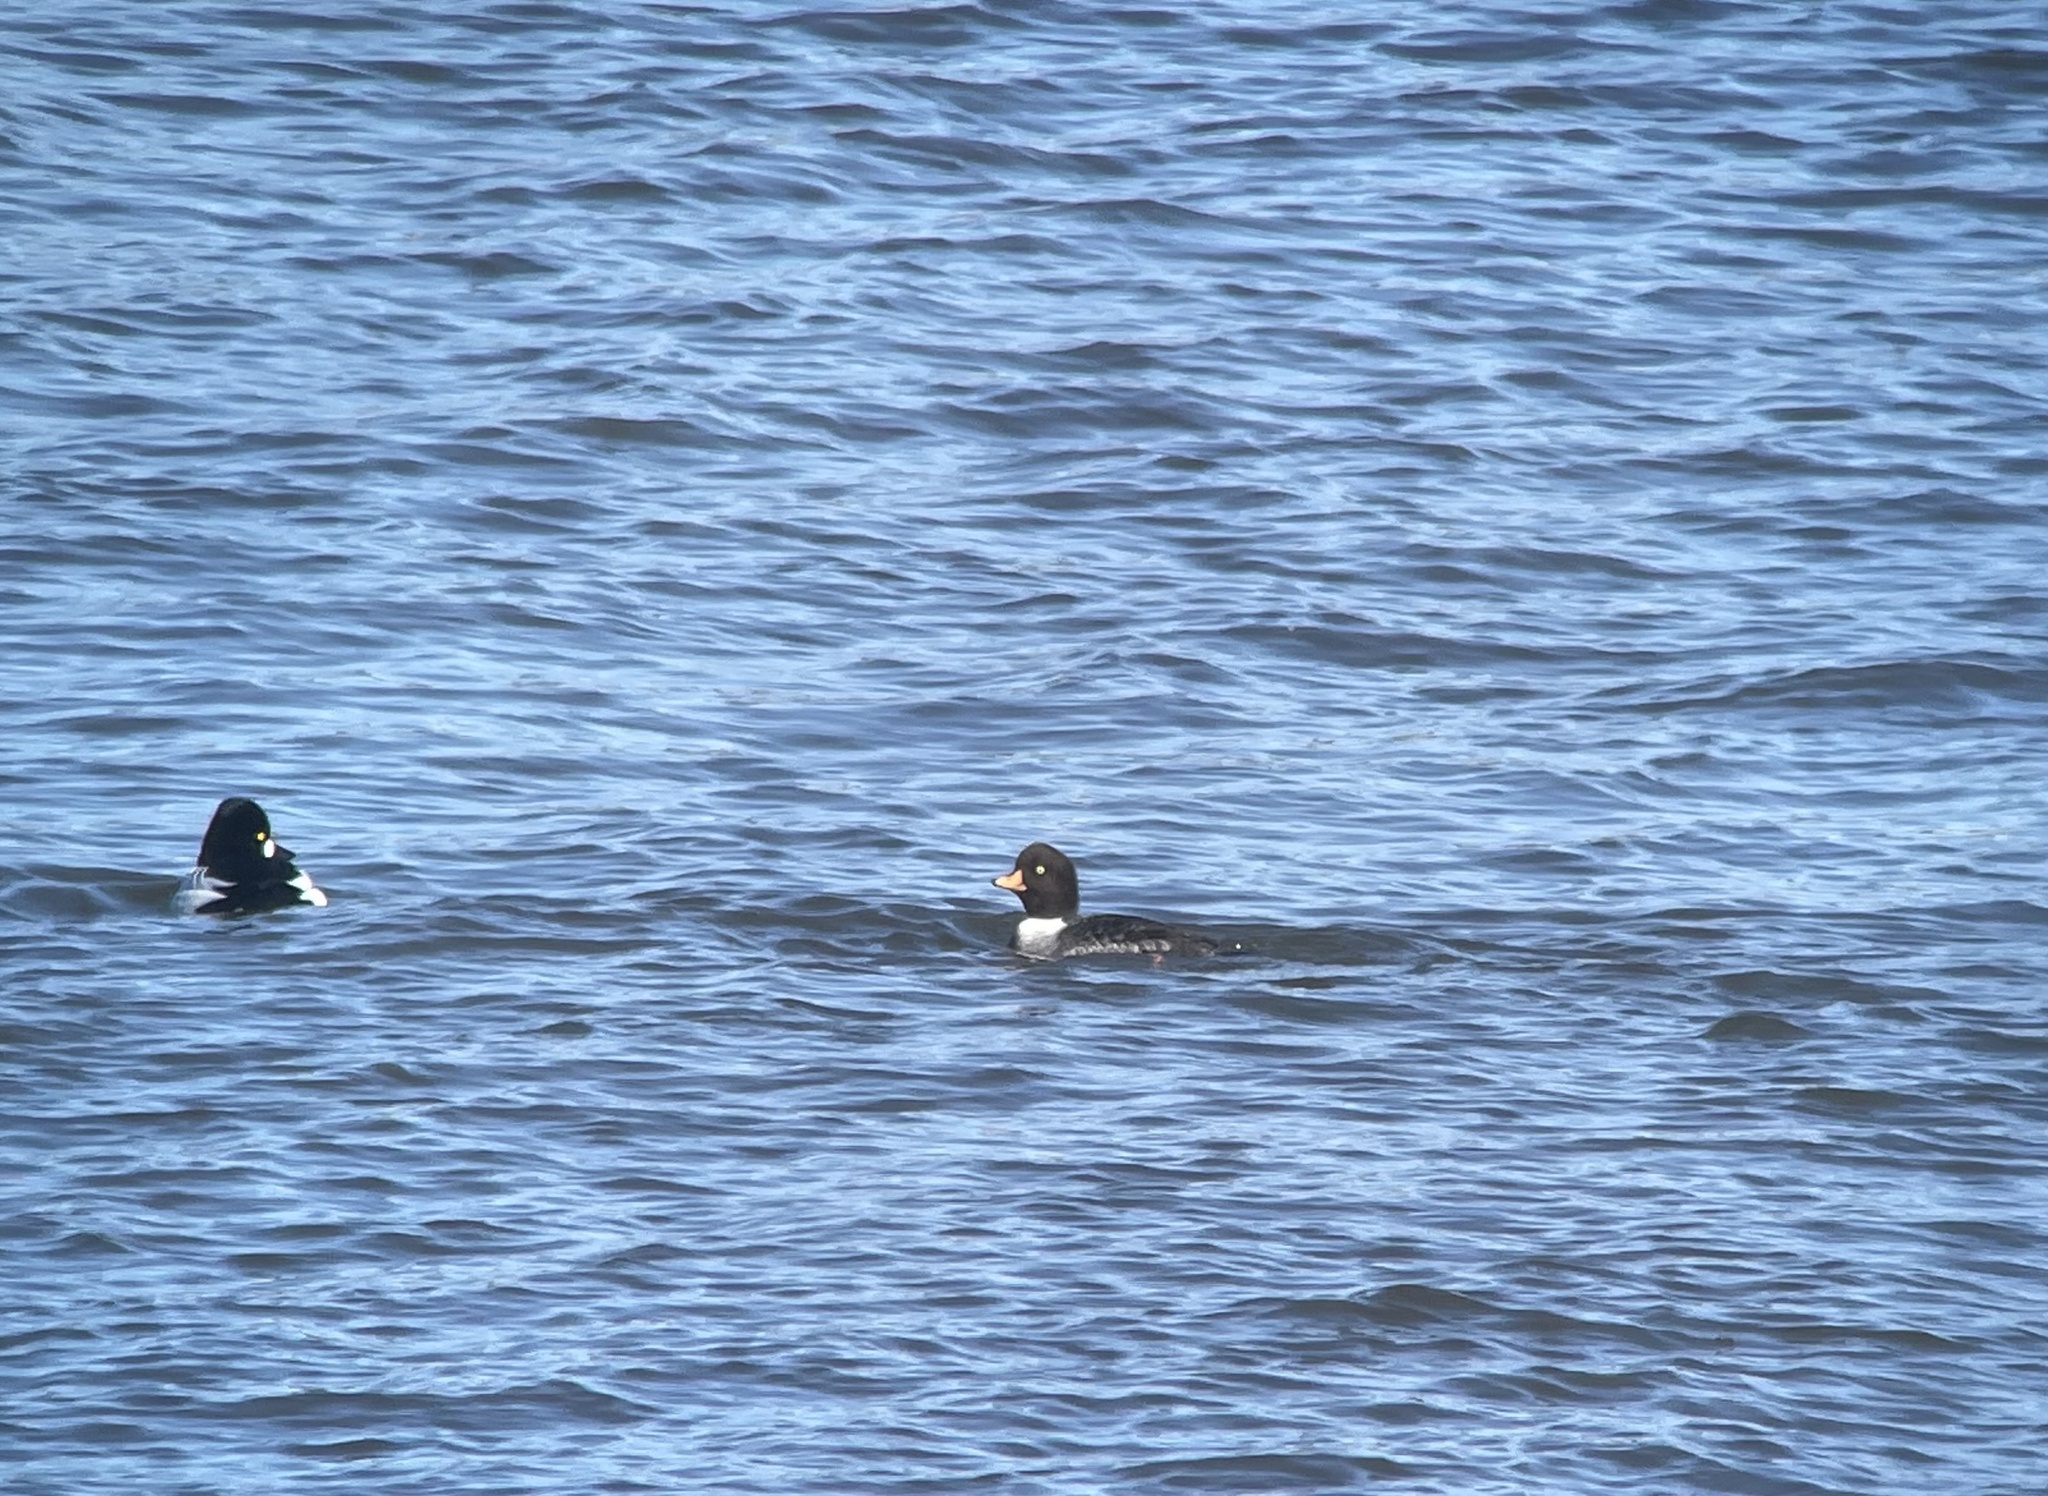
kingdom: Animalia
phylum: Chordata
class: Aves
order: Anseriformes
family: Anatidae
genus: Bucephala
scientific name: Bucephala islandica
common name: Barrow's goldeneye
